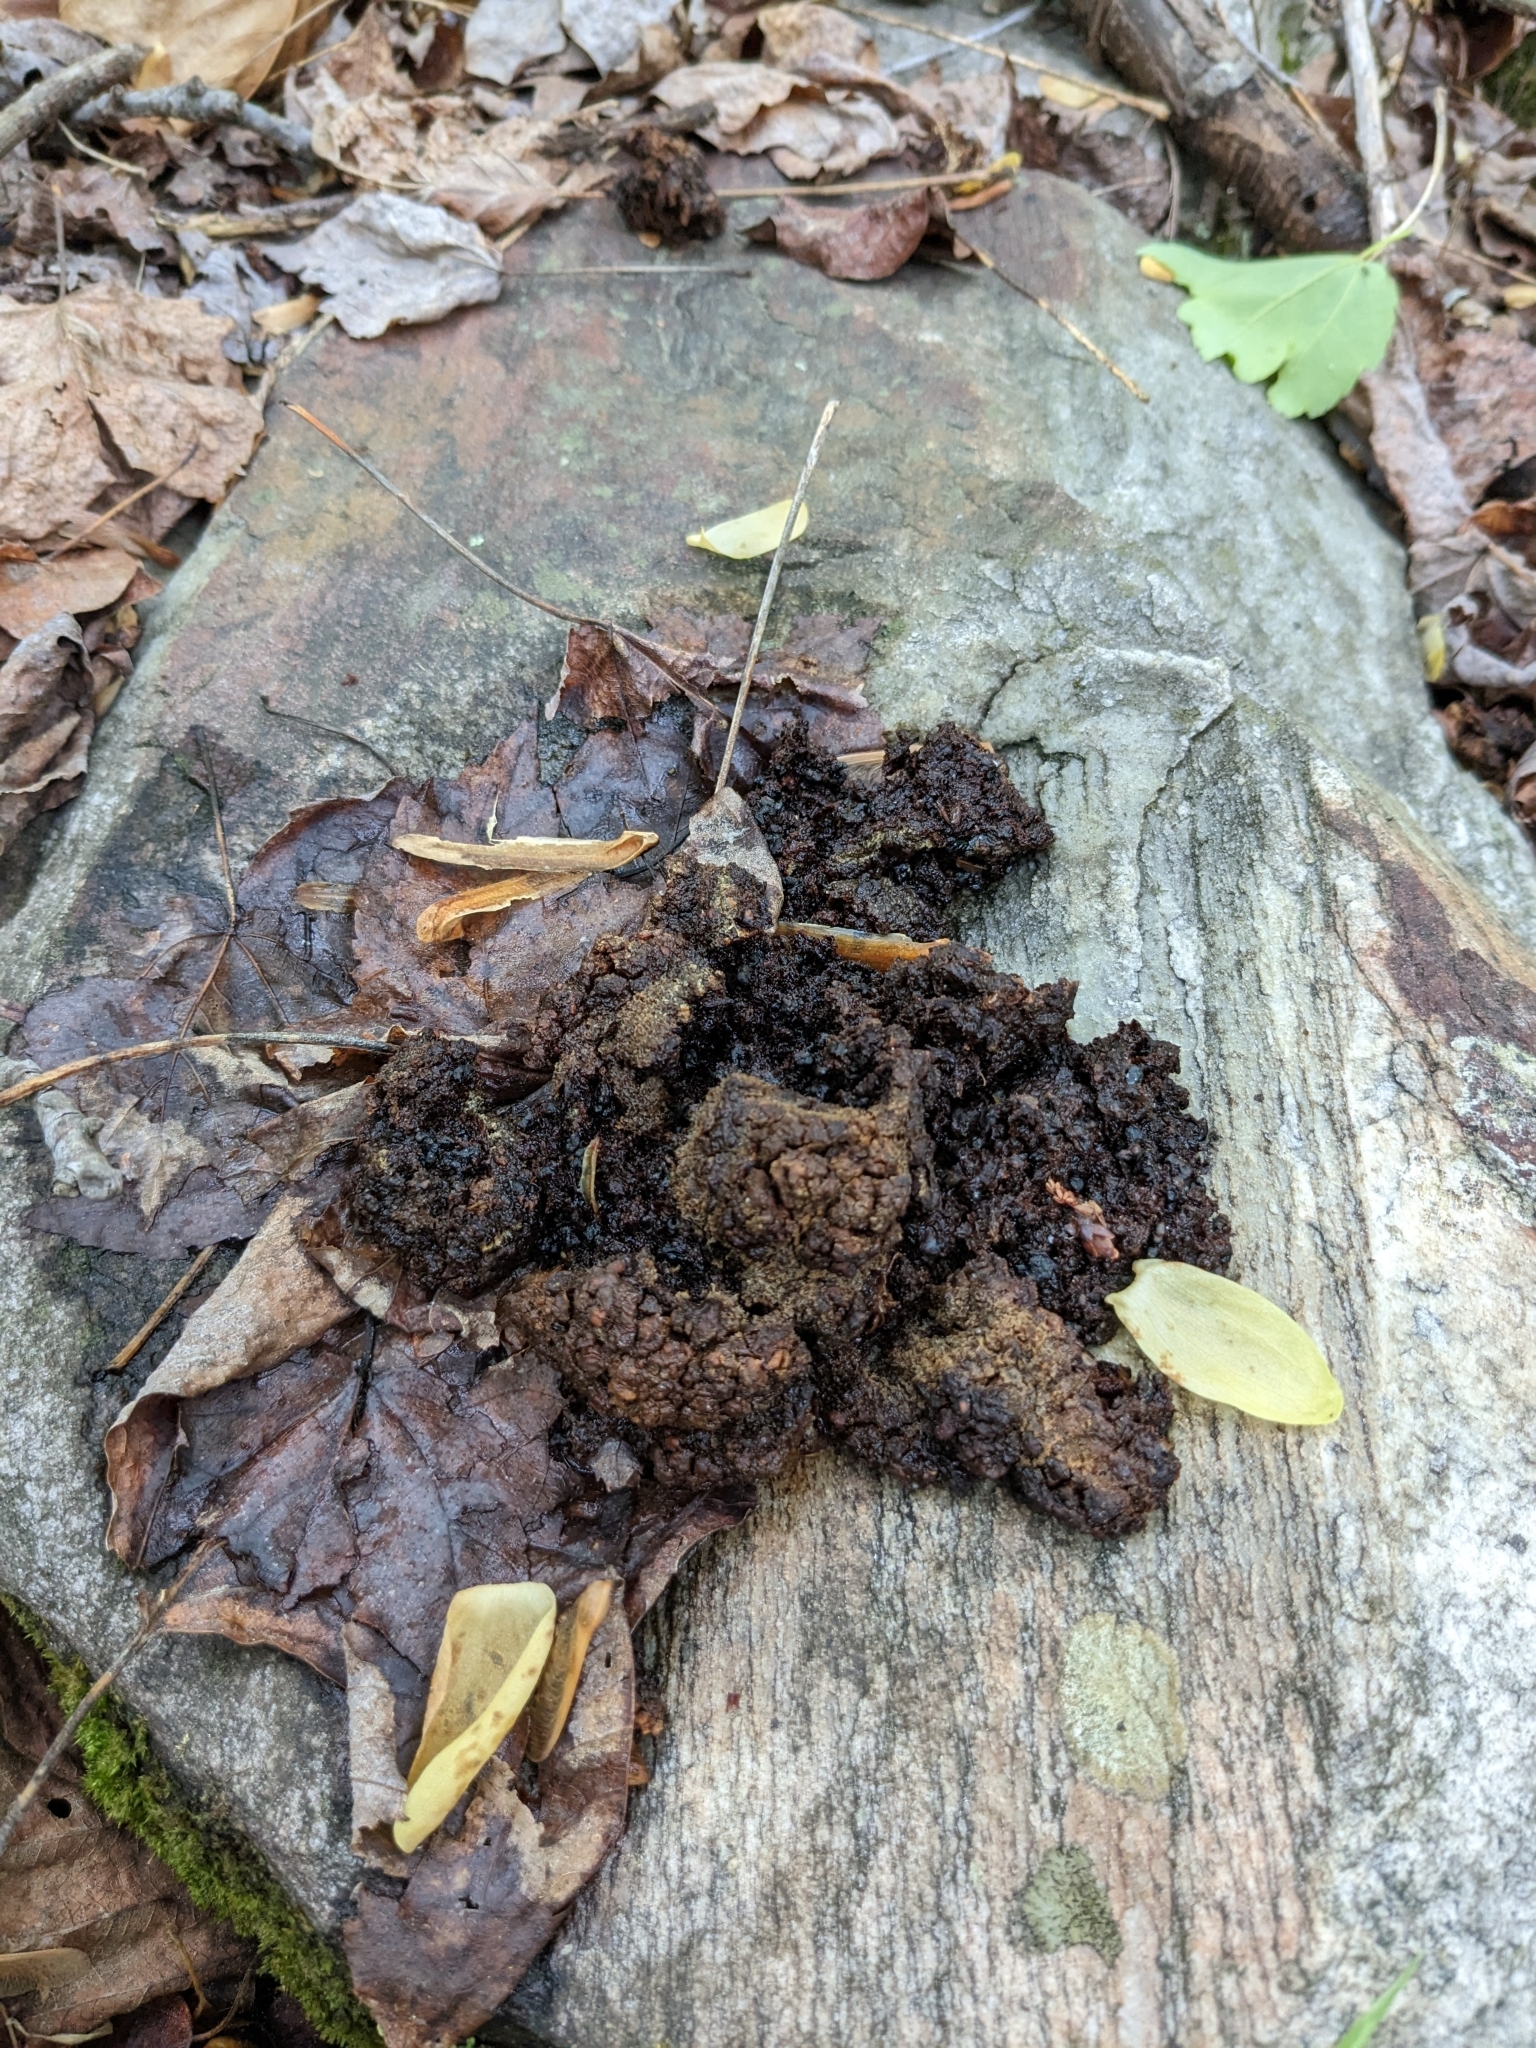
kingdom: Animalia
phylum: Chordata
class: Mammalia
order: Carnivora
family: Ursidae
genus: Ursus
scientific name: Ursus americanus
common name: American black bear
